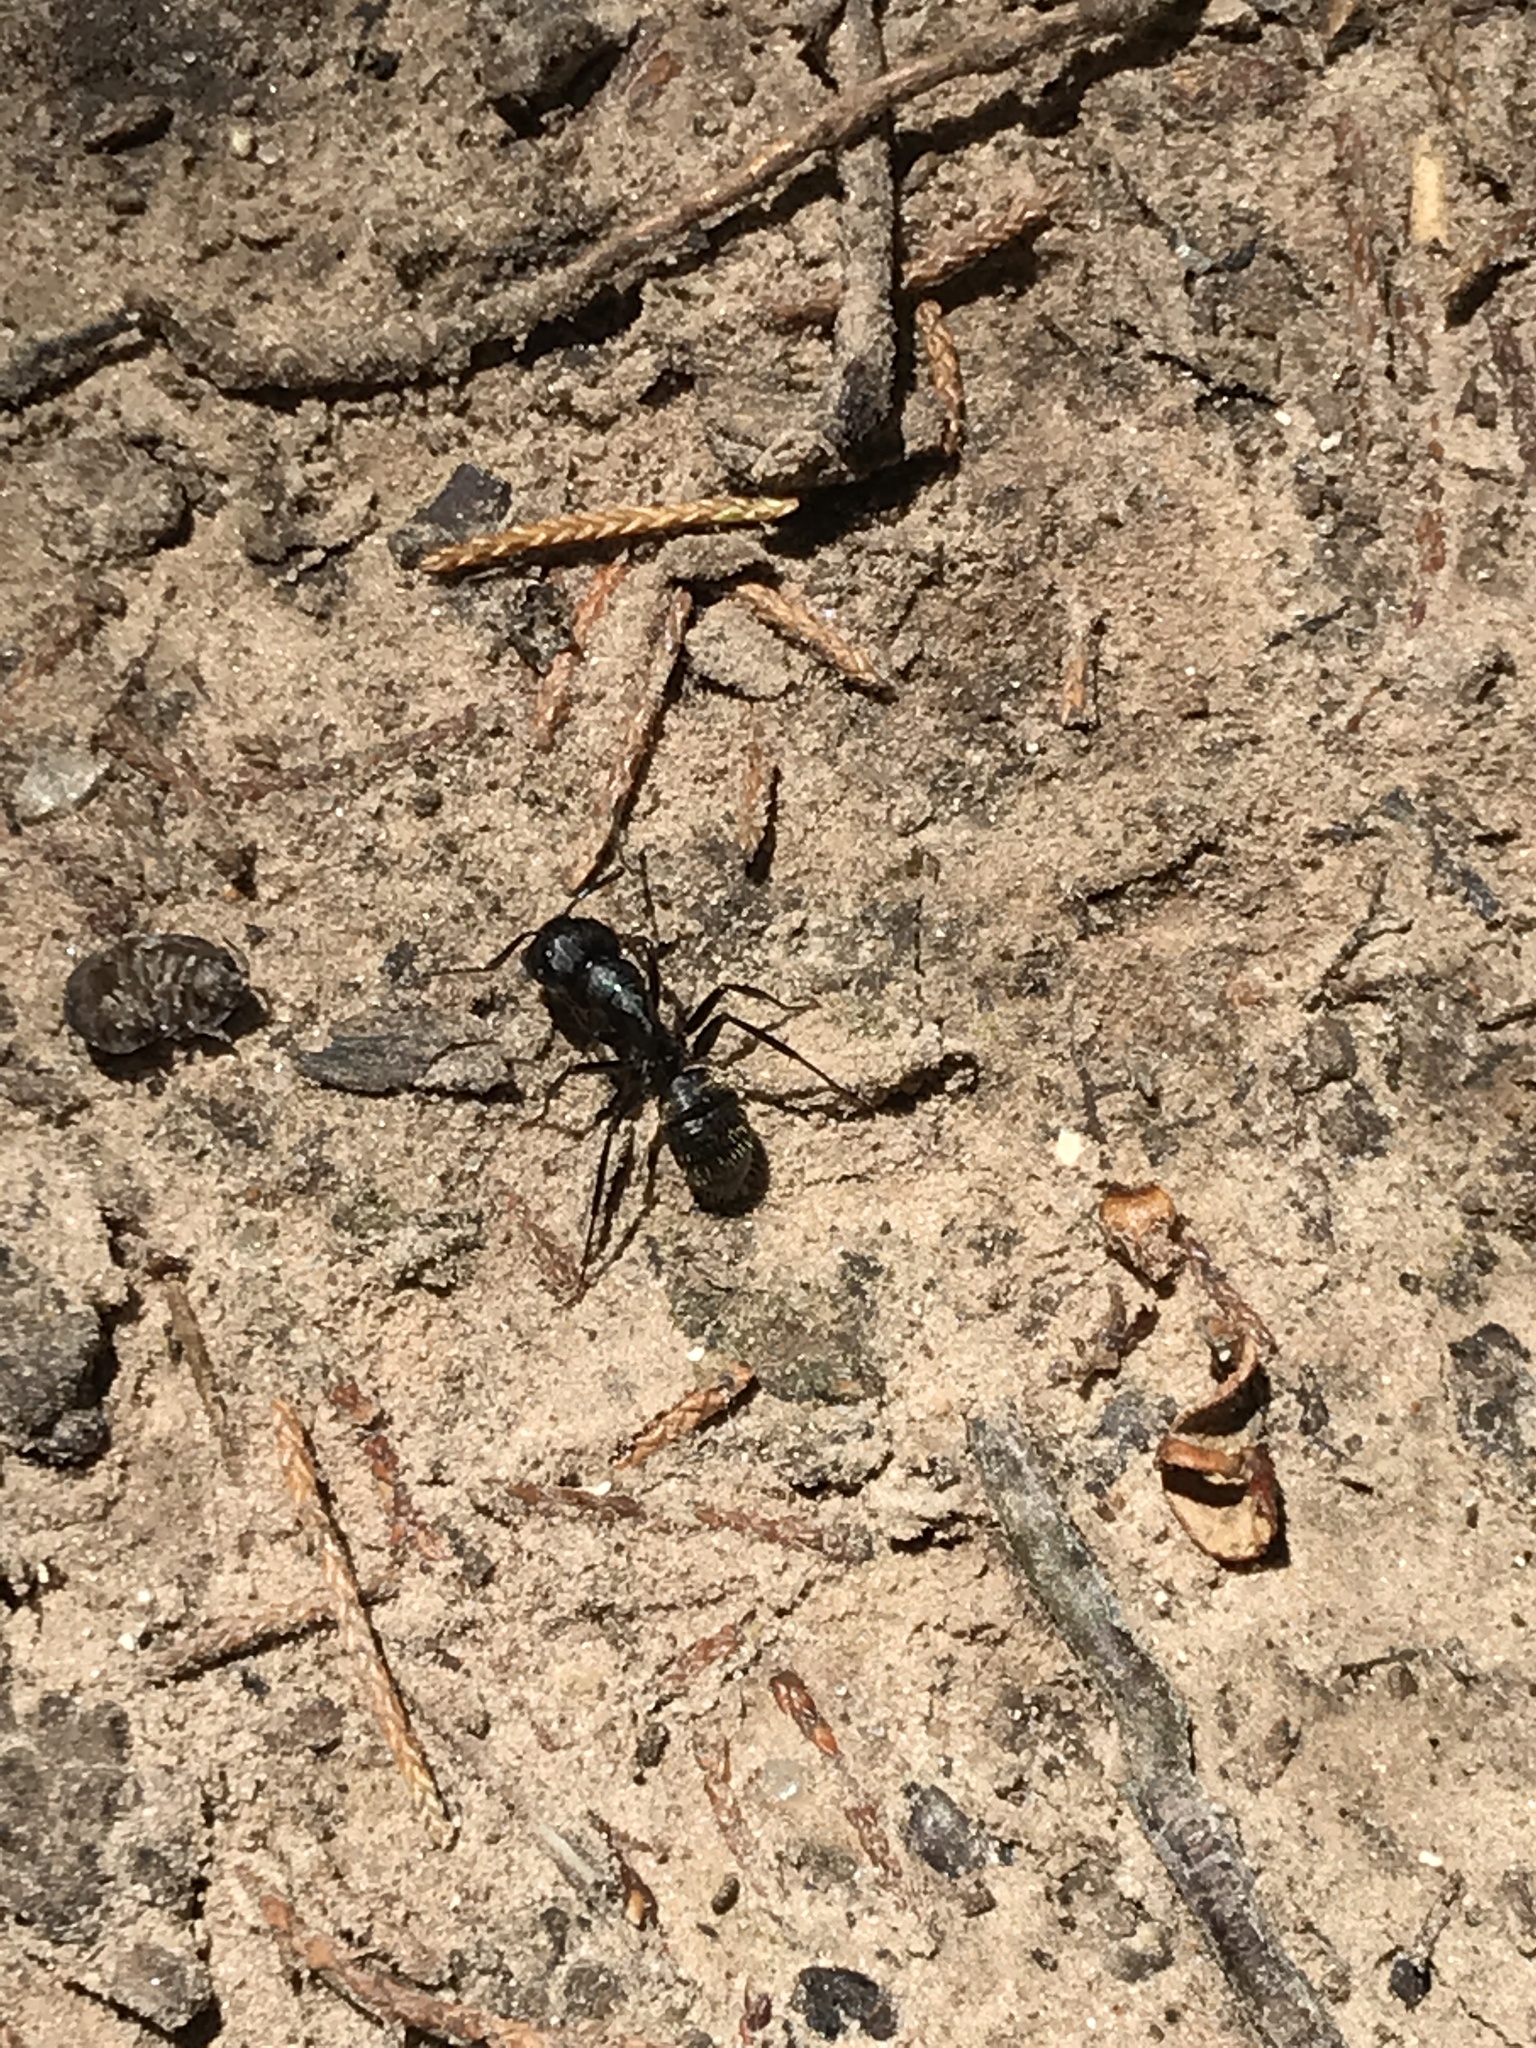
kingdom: Animalia
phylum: Arthropoda
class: Insecta
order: Hymenoptera
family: Formicidae
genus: Camponotus
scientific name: Camponotus pennsylvanicus
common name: Black carpenter ant
